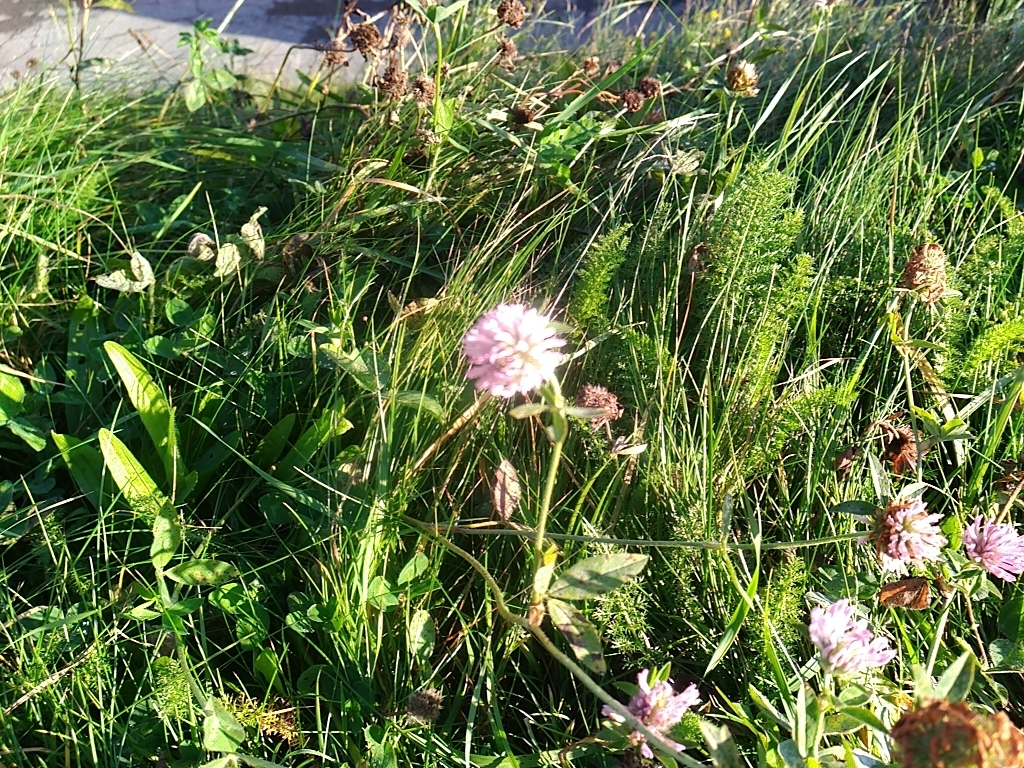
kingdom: Plantae
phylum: Tracheophyta
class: Magnoliopsida
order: Fabales
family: Fabaceae
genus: Trifolium
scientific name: Trifolium pratense
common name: Red clover
